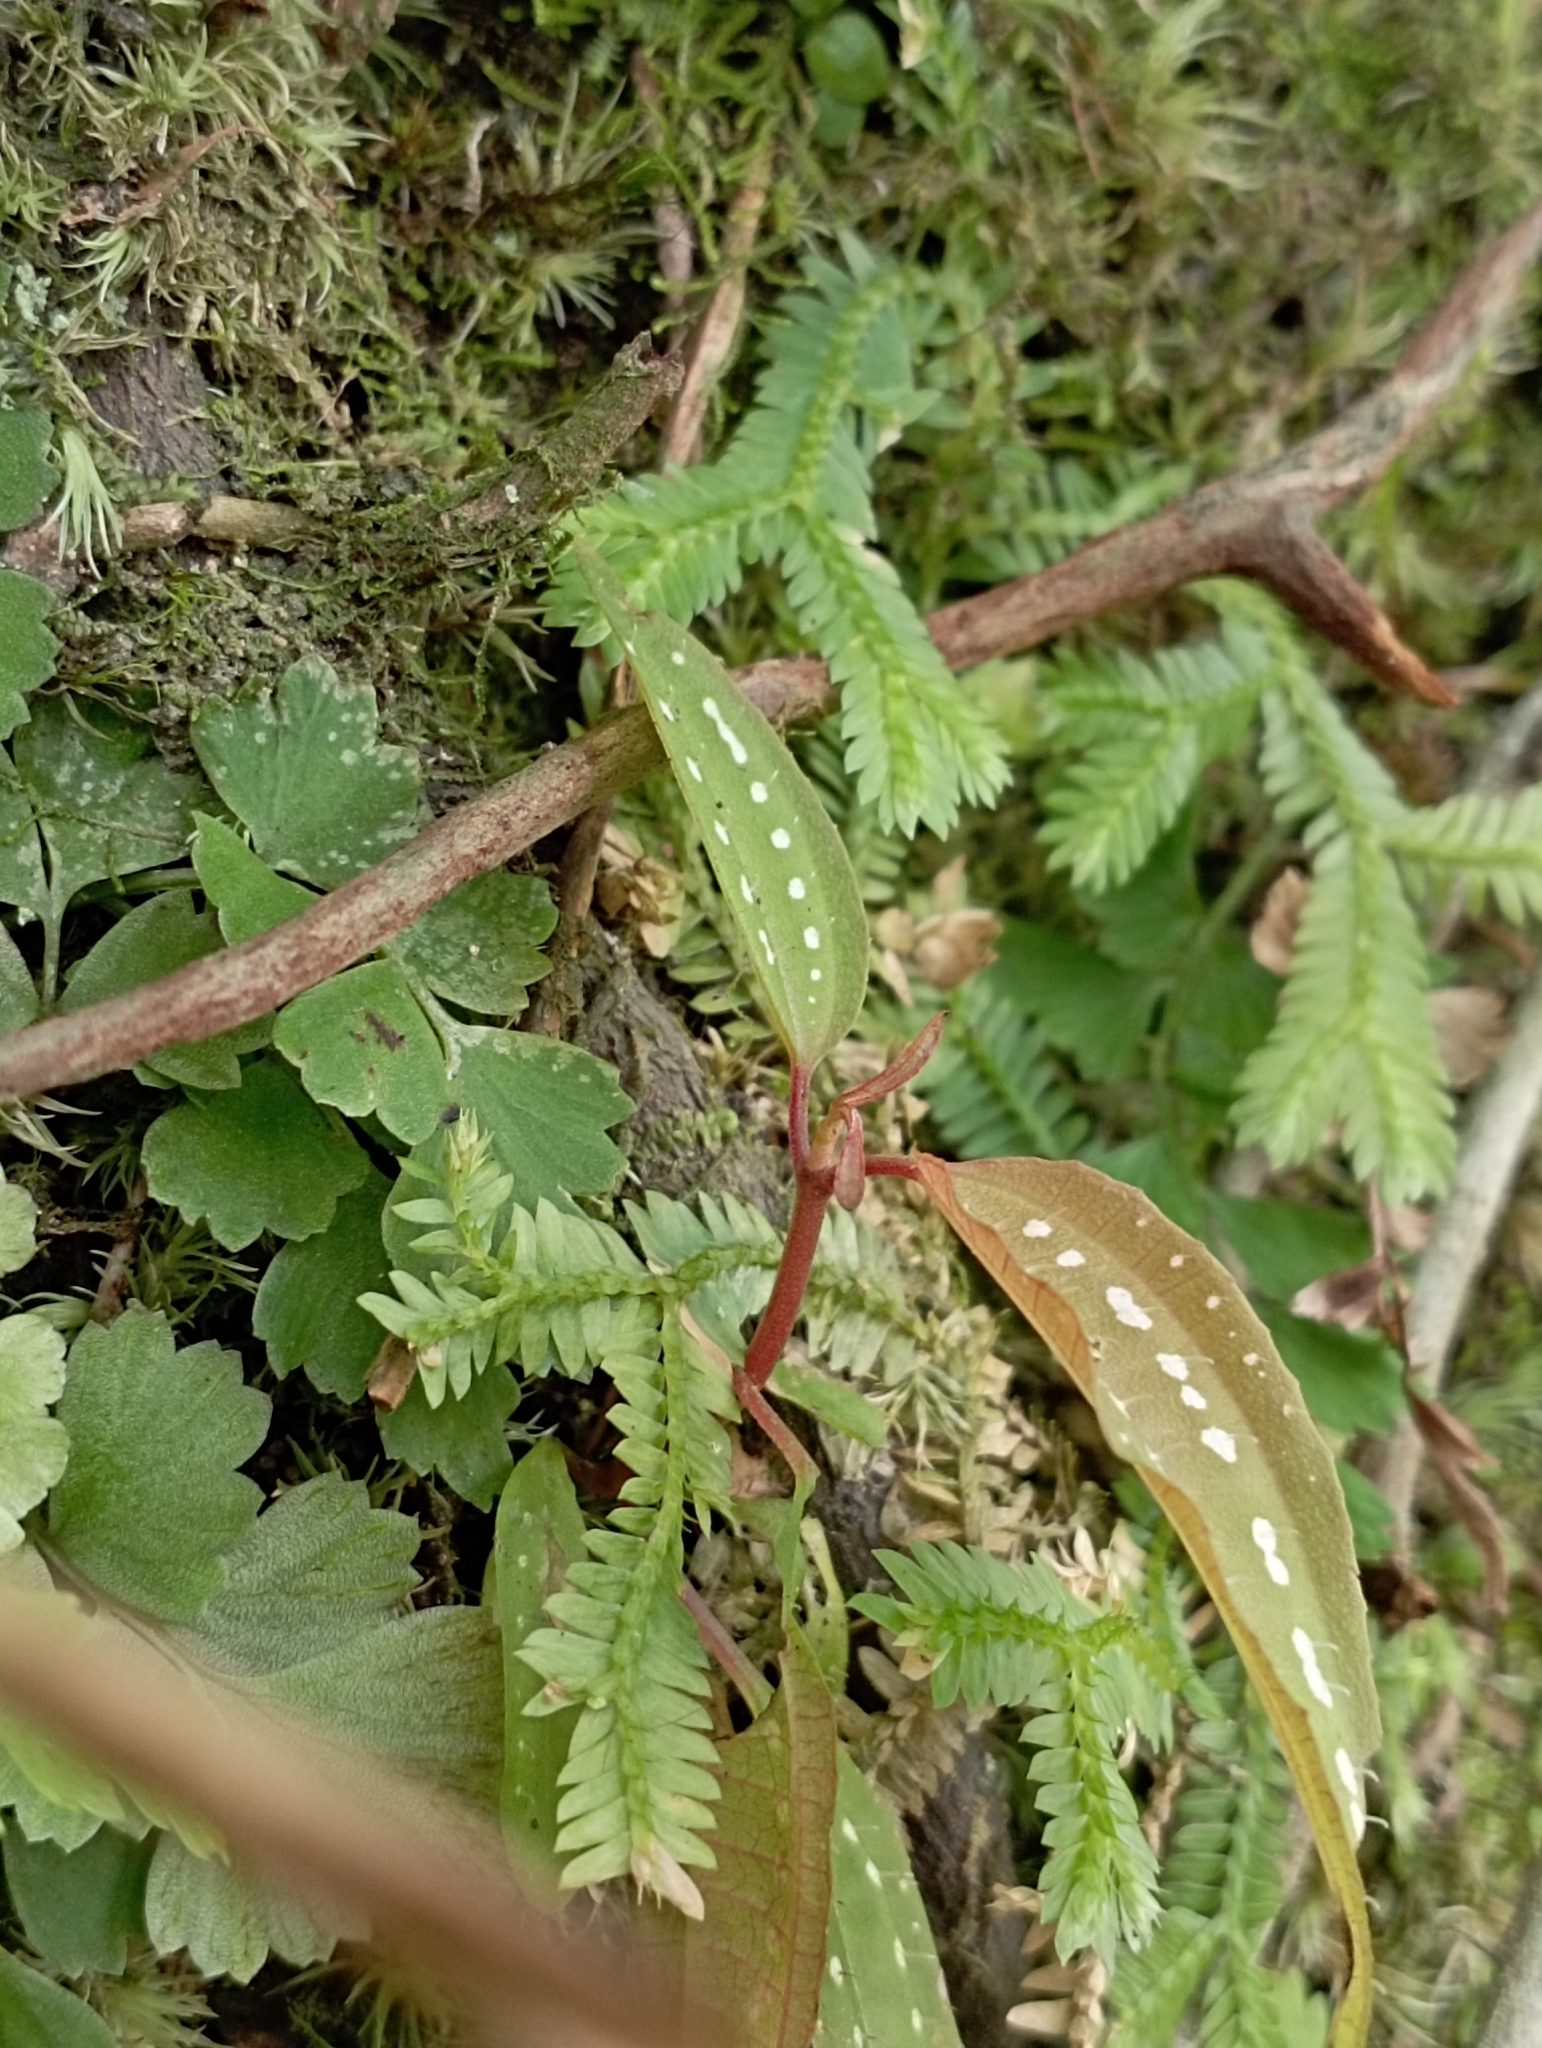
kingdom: Plantae
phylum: Tracheophyta
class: Magnoliopsida
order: Myrtales
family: Melastomataceae
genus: Blastus
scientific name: Blastus cochinchinensis
